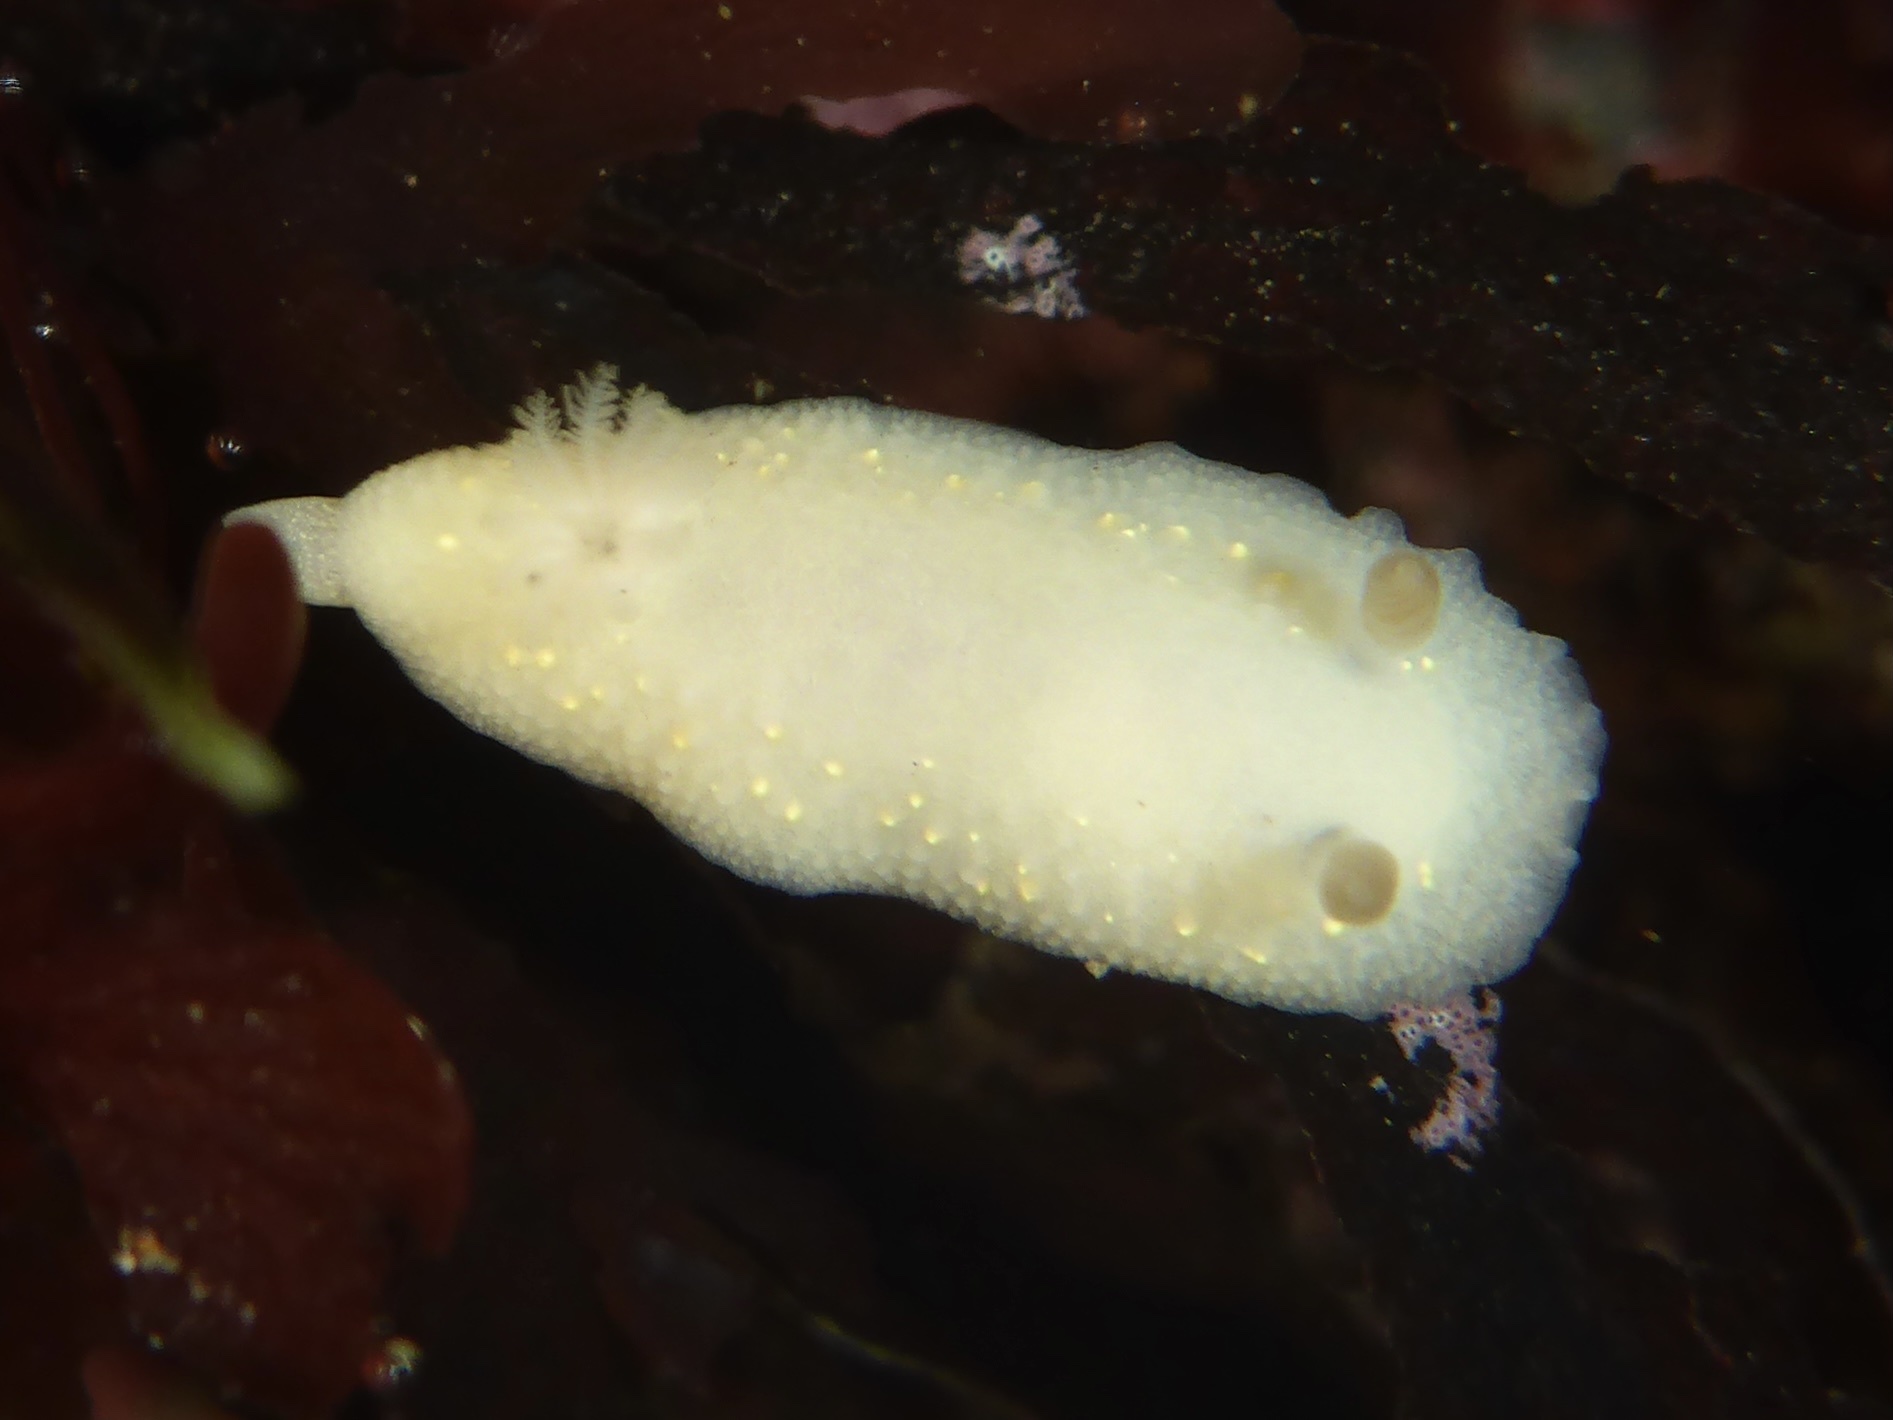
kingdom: Animalia
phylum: Mollusca
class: Gastropoda
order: Nudibranchia
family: Cadlinidae
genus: Cadlina
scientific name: Cadlina modesta
